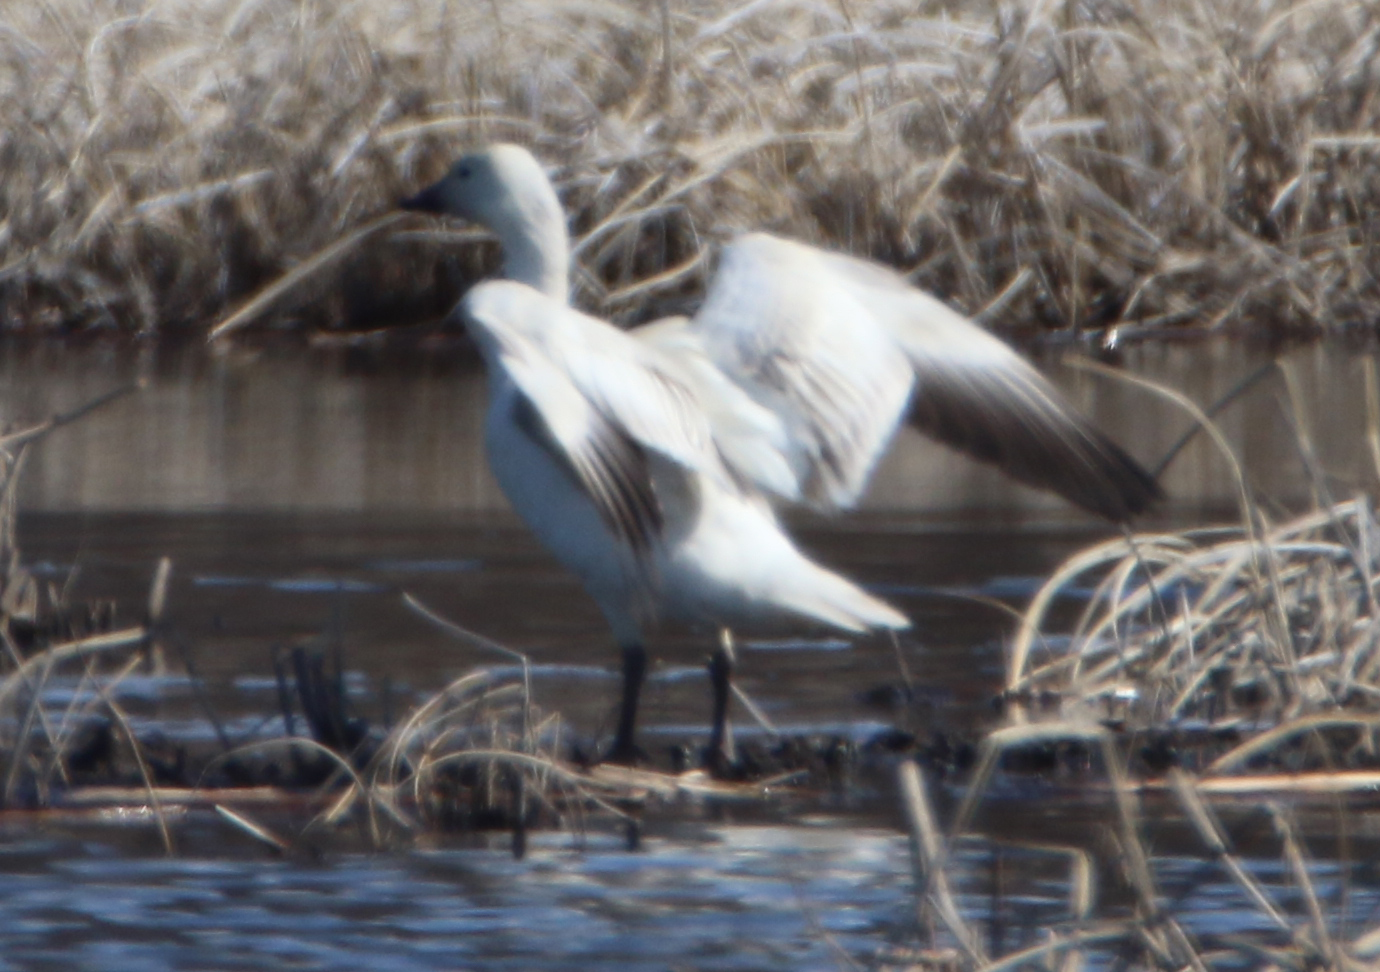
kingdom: Animalia
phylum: Chordata
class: Aves
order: Anseriformes
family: Anatidae
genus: Anser
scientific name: Anser caerulescens
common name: Snow goose
